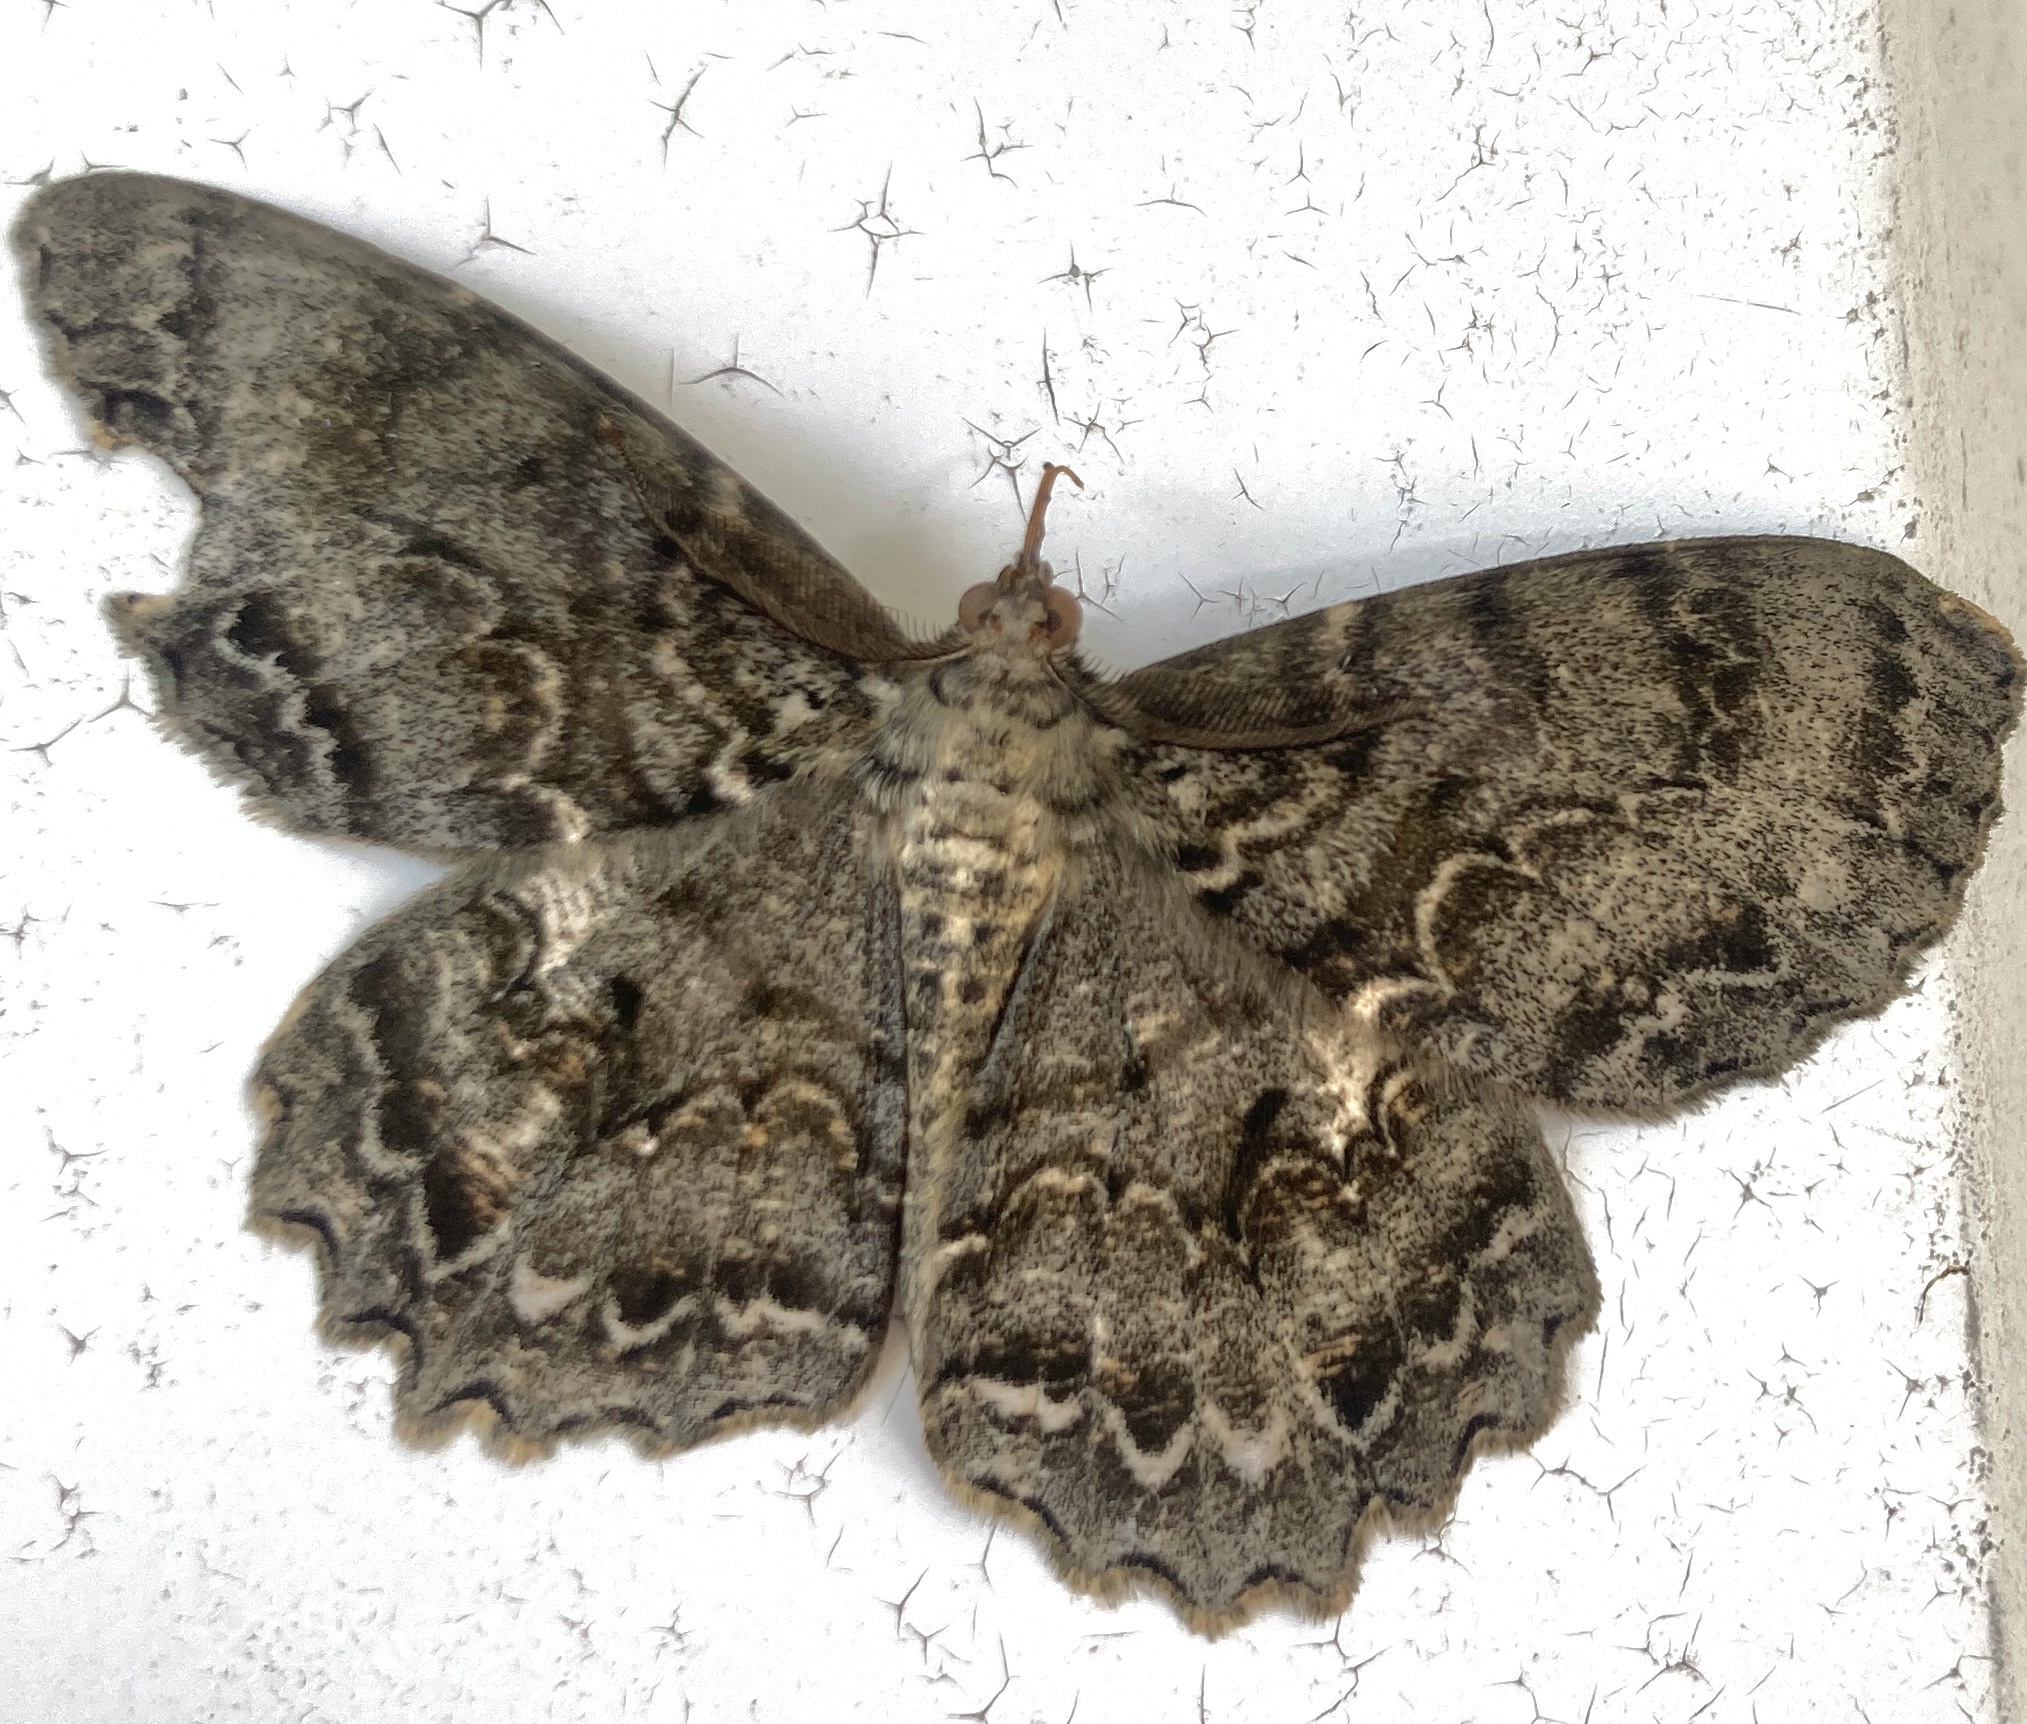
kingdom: Animalia
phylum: Arthropoda
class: Insecta
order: Lepidoptera
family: Geometridae
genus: Epimecis
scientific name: Epimecis hortaria
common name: Tulip-tree beauty
